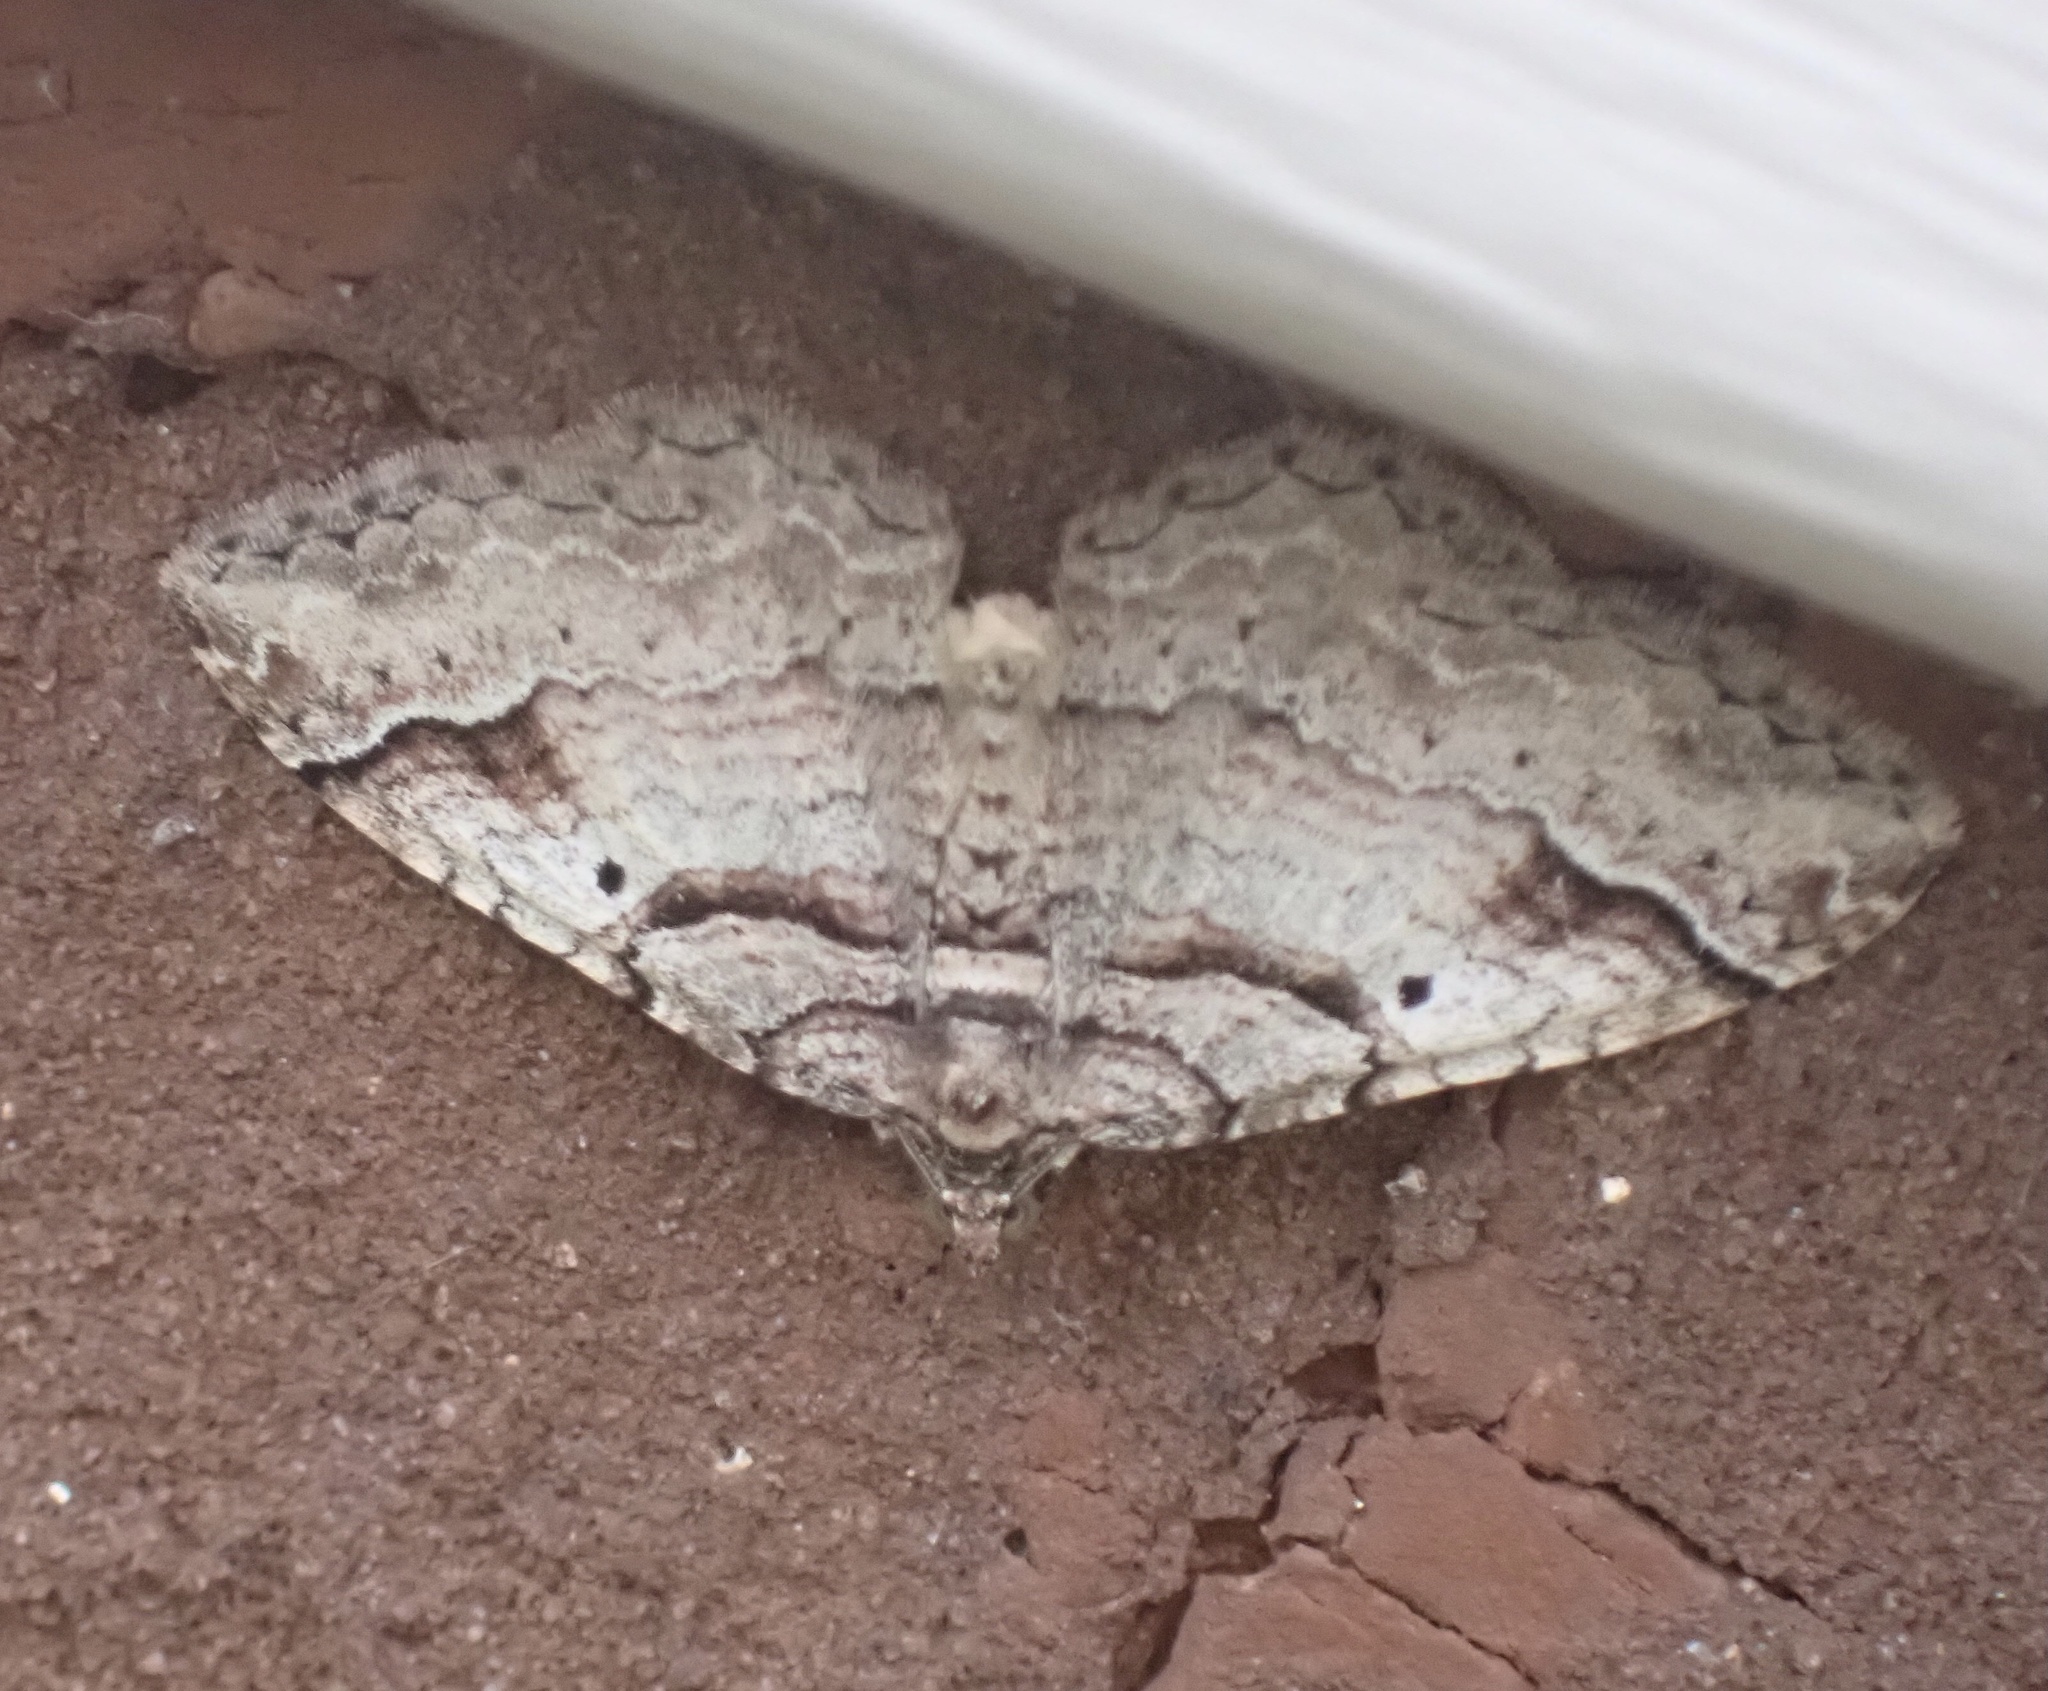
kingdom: Animalia
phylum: Arthropoda
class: Insecta
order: Lepidoptera
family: Geometridae
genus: Costaconvexa
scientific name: Costaconvexa centrostrigaria
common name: Bent-line carpet
